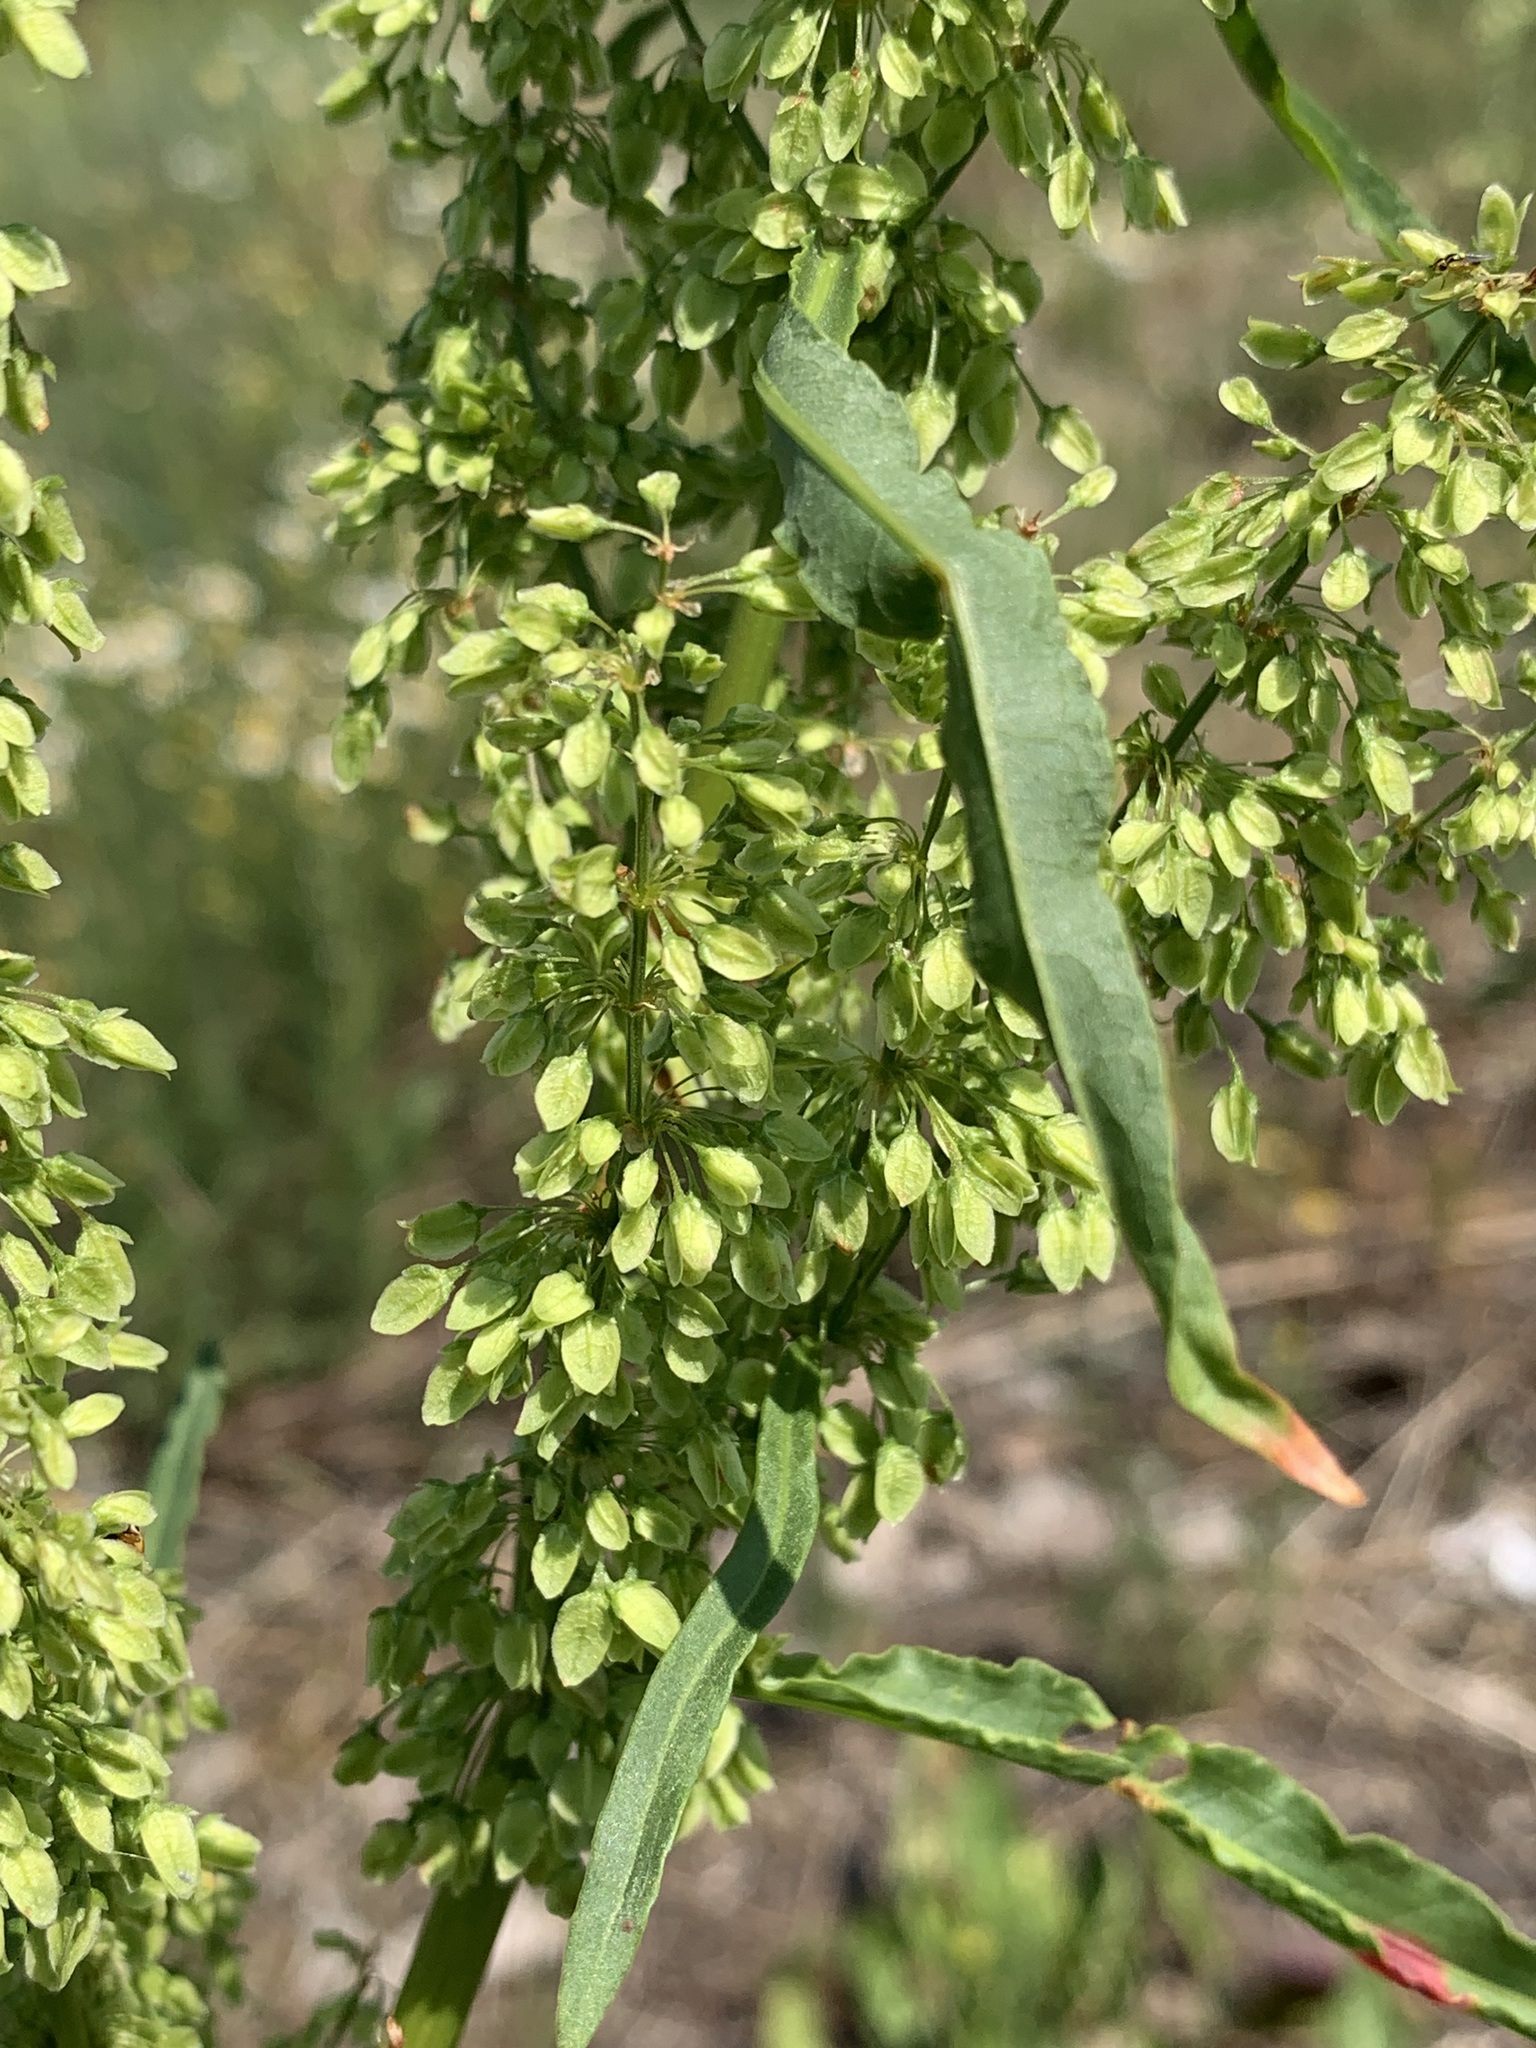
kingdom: Plantae
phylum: Tracheophyta
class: Magnoliopsida
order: Caryophyllales
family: Polygonaceae
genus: Rumex
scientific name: Rumex pseudonatronatus
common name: Field dock
